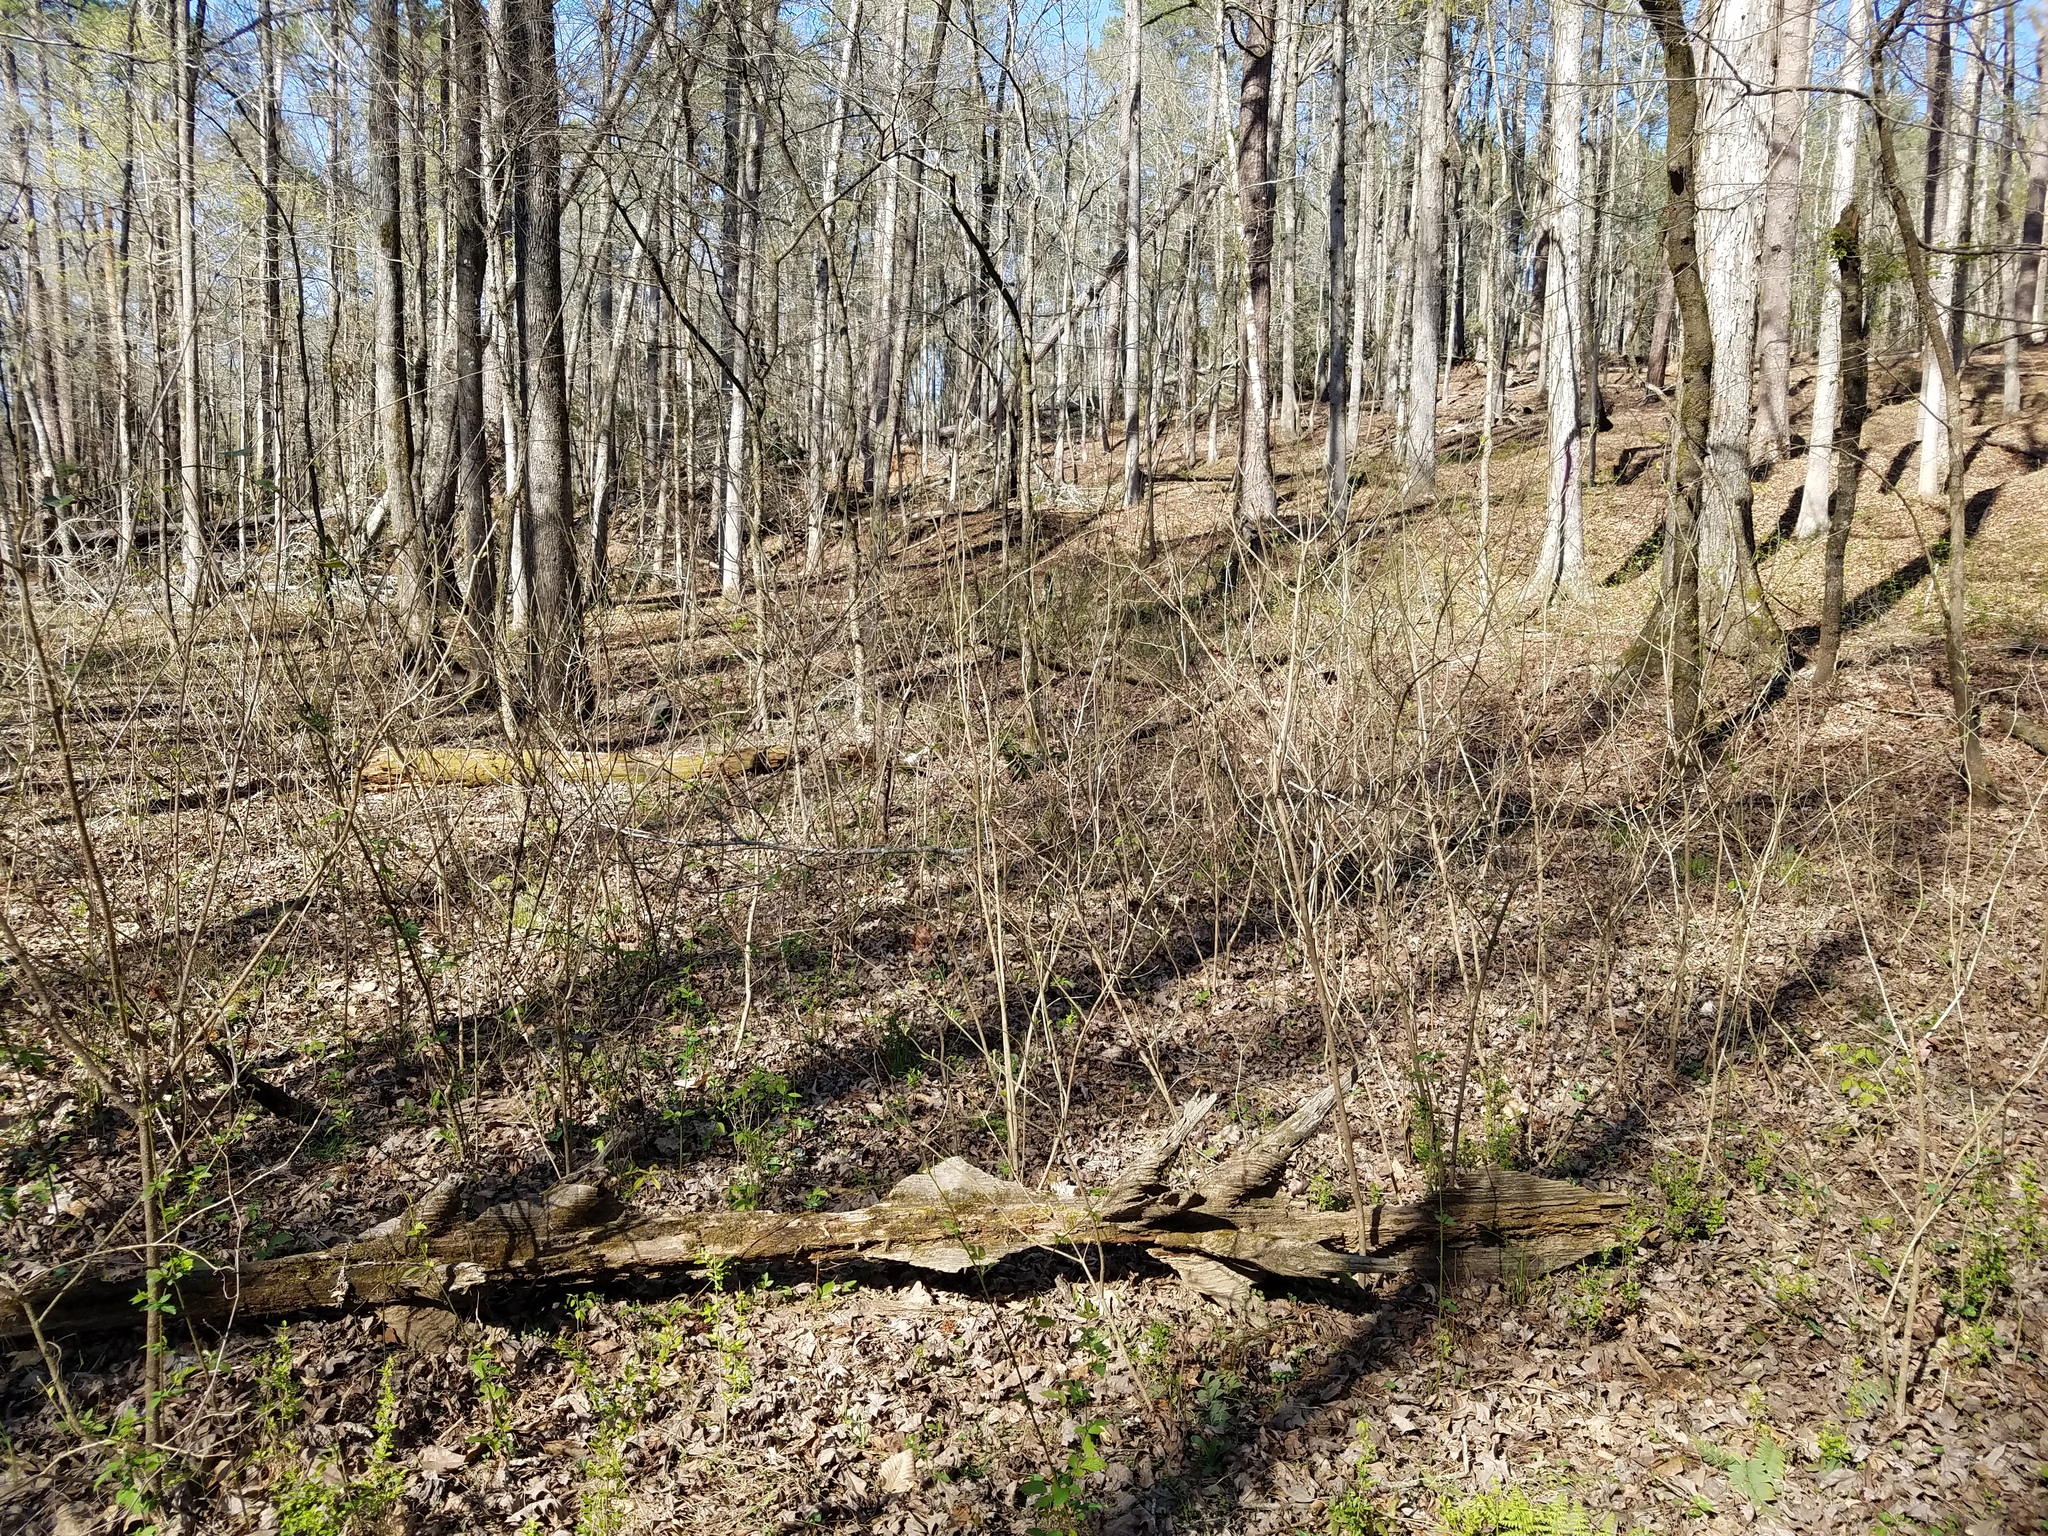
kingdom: Plantae
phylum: Tracheophyta
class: Magnoliopsida
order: Lamiales
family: Lamiaceae
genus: Callicarpa
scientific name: Callicarpa americana
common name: American beautyberry
